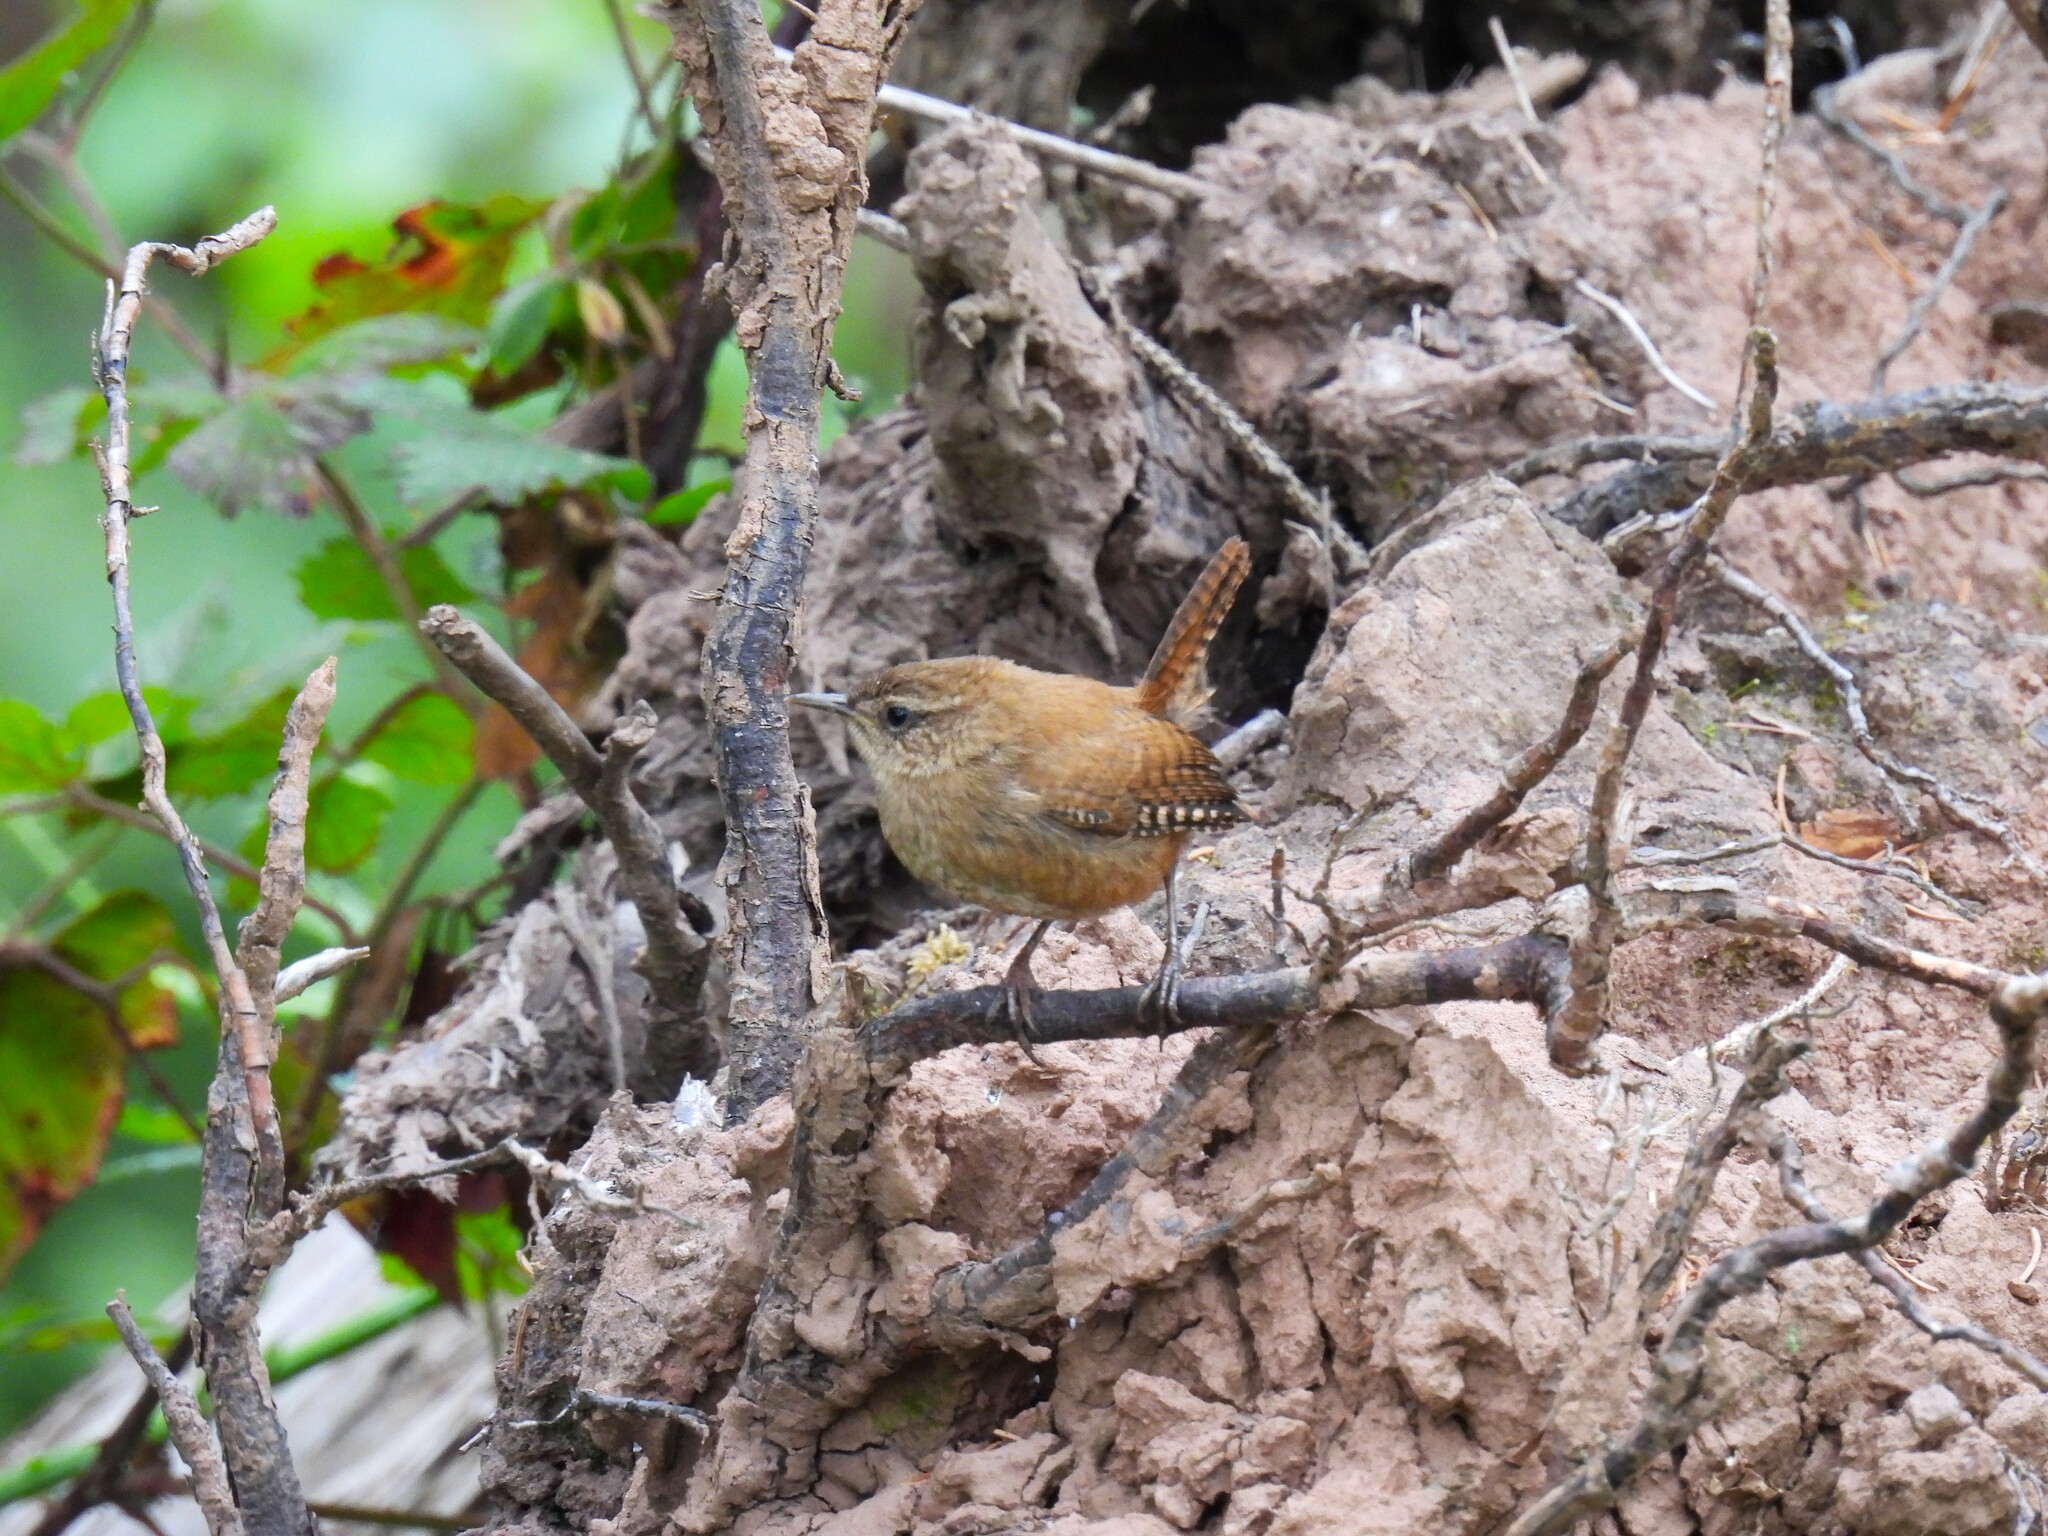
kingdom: Animalia
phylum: Chordata
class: Aves
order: Passeriformes
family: Troglodytidae
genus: Troglodytes
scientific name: Troglodytes troglodytes
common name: Eurasian wren
